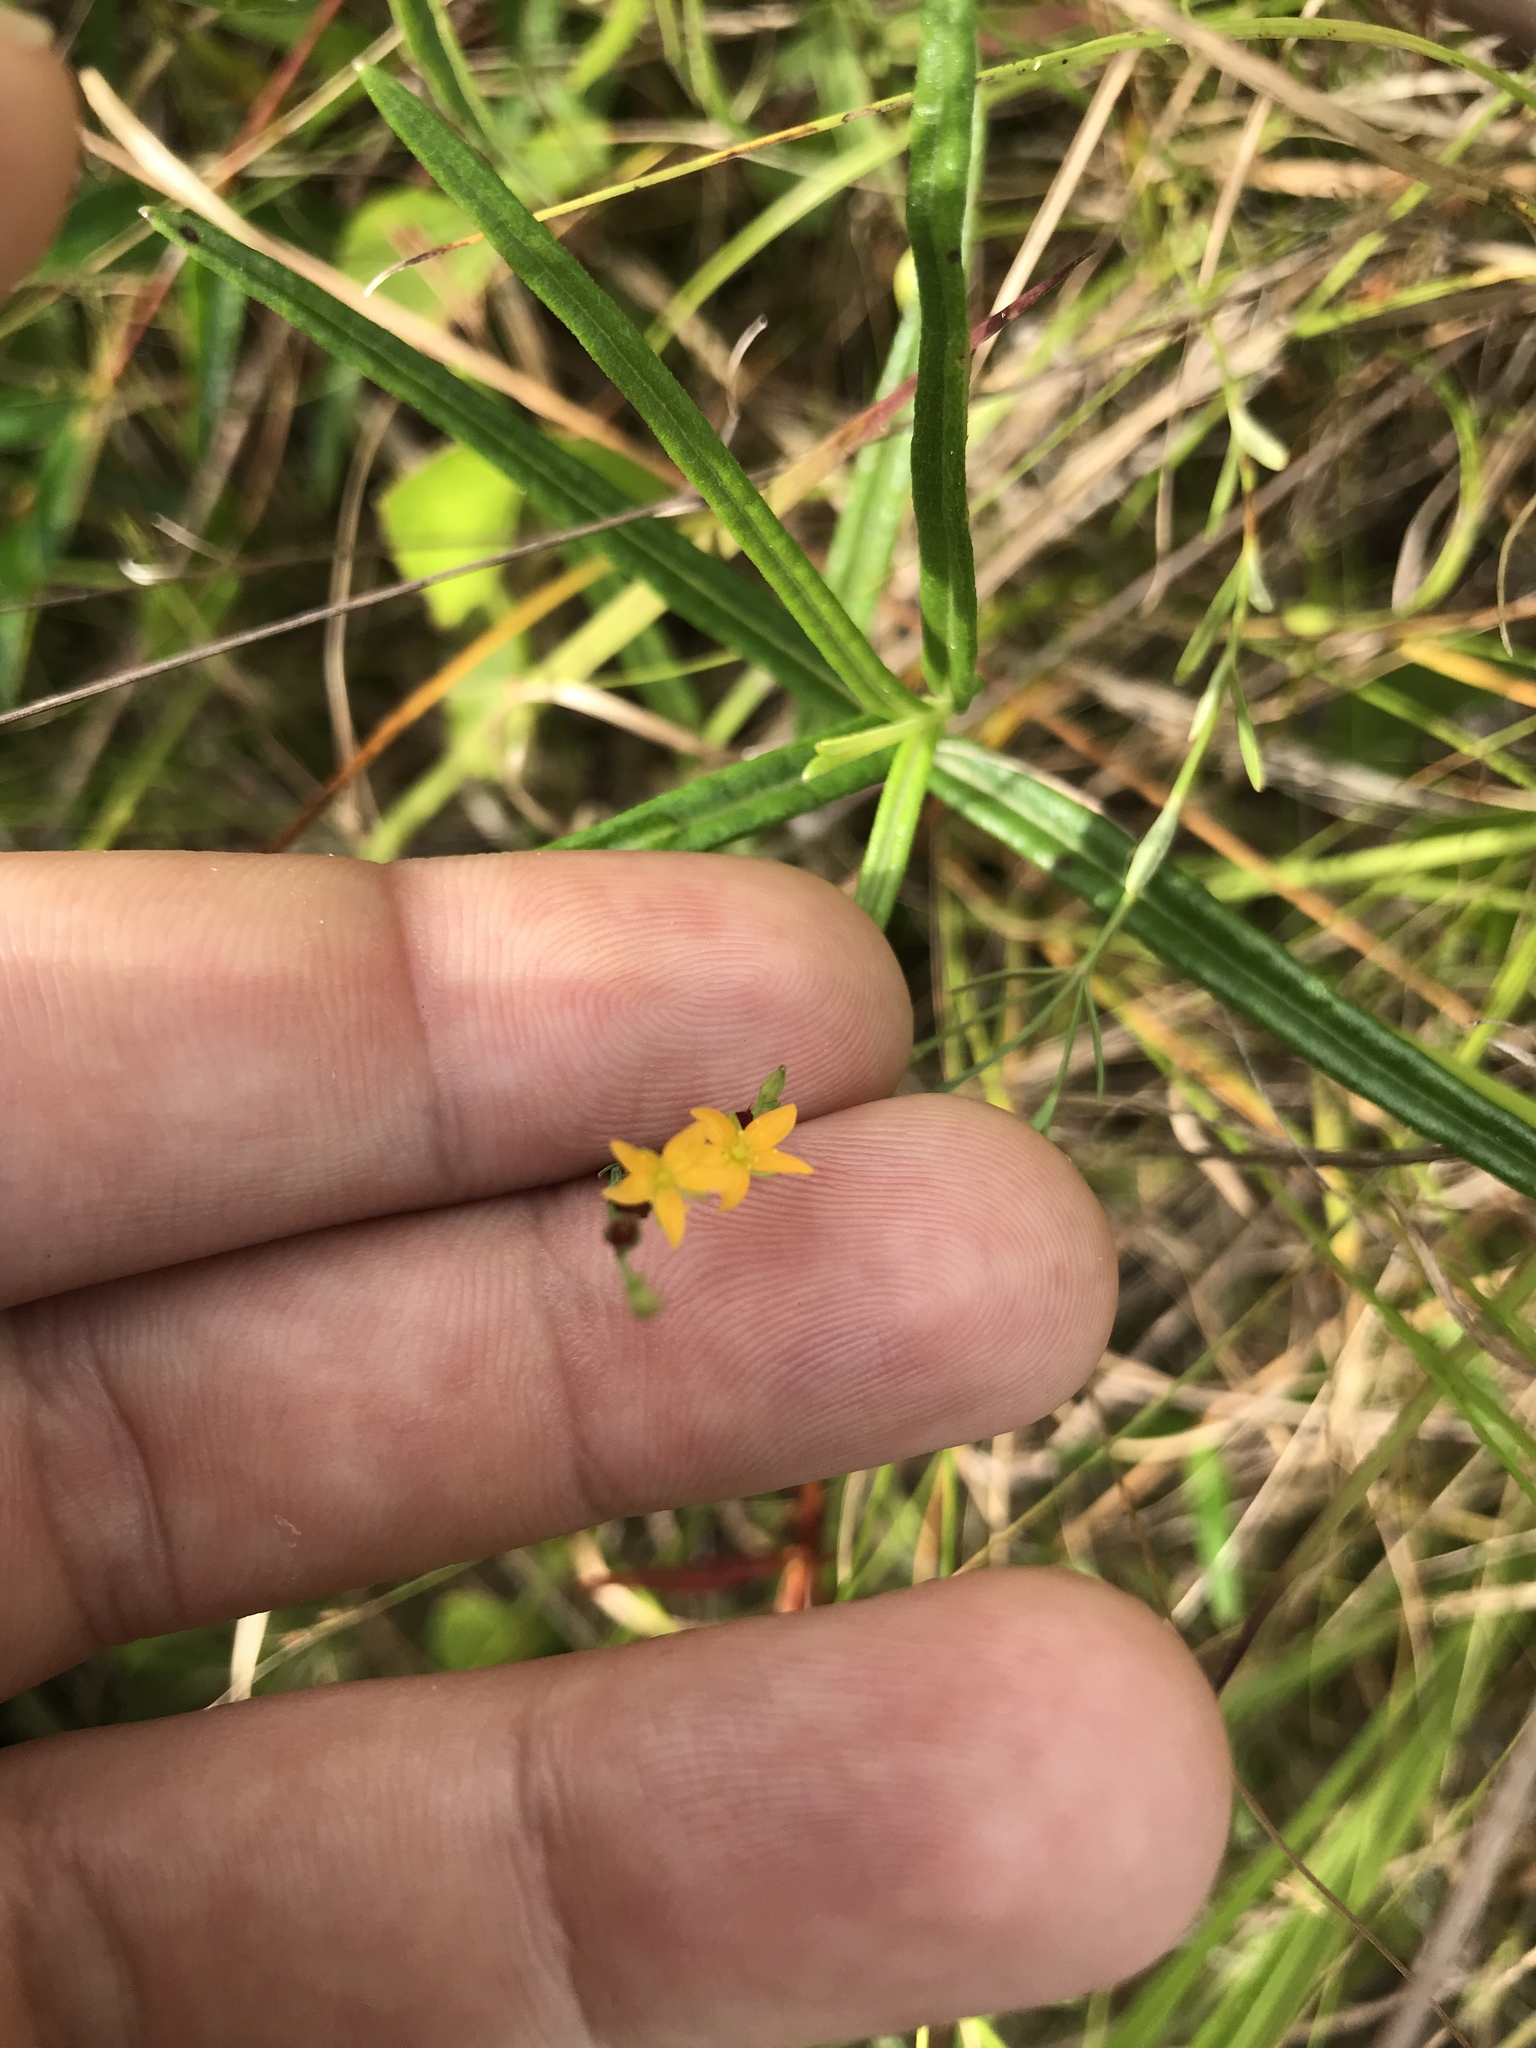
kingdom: Plantae
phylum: Tracheophyta
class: Magnoliopsida
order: Malpighiales
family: Hypericaceae
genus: Hypericum
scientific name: Hypericum drummondii
